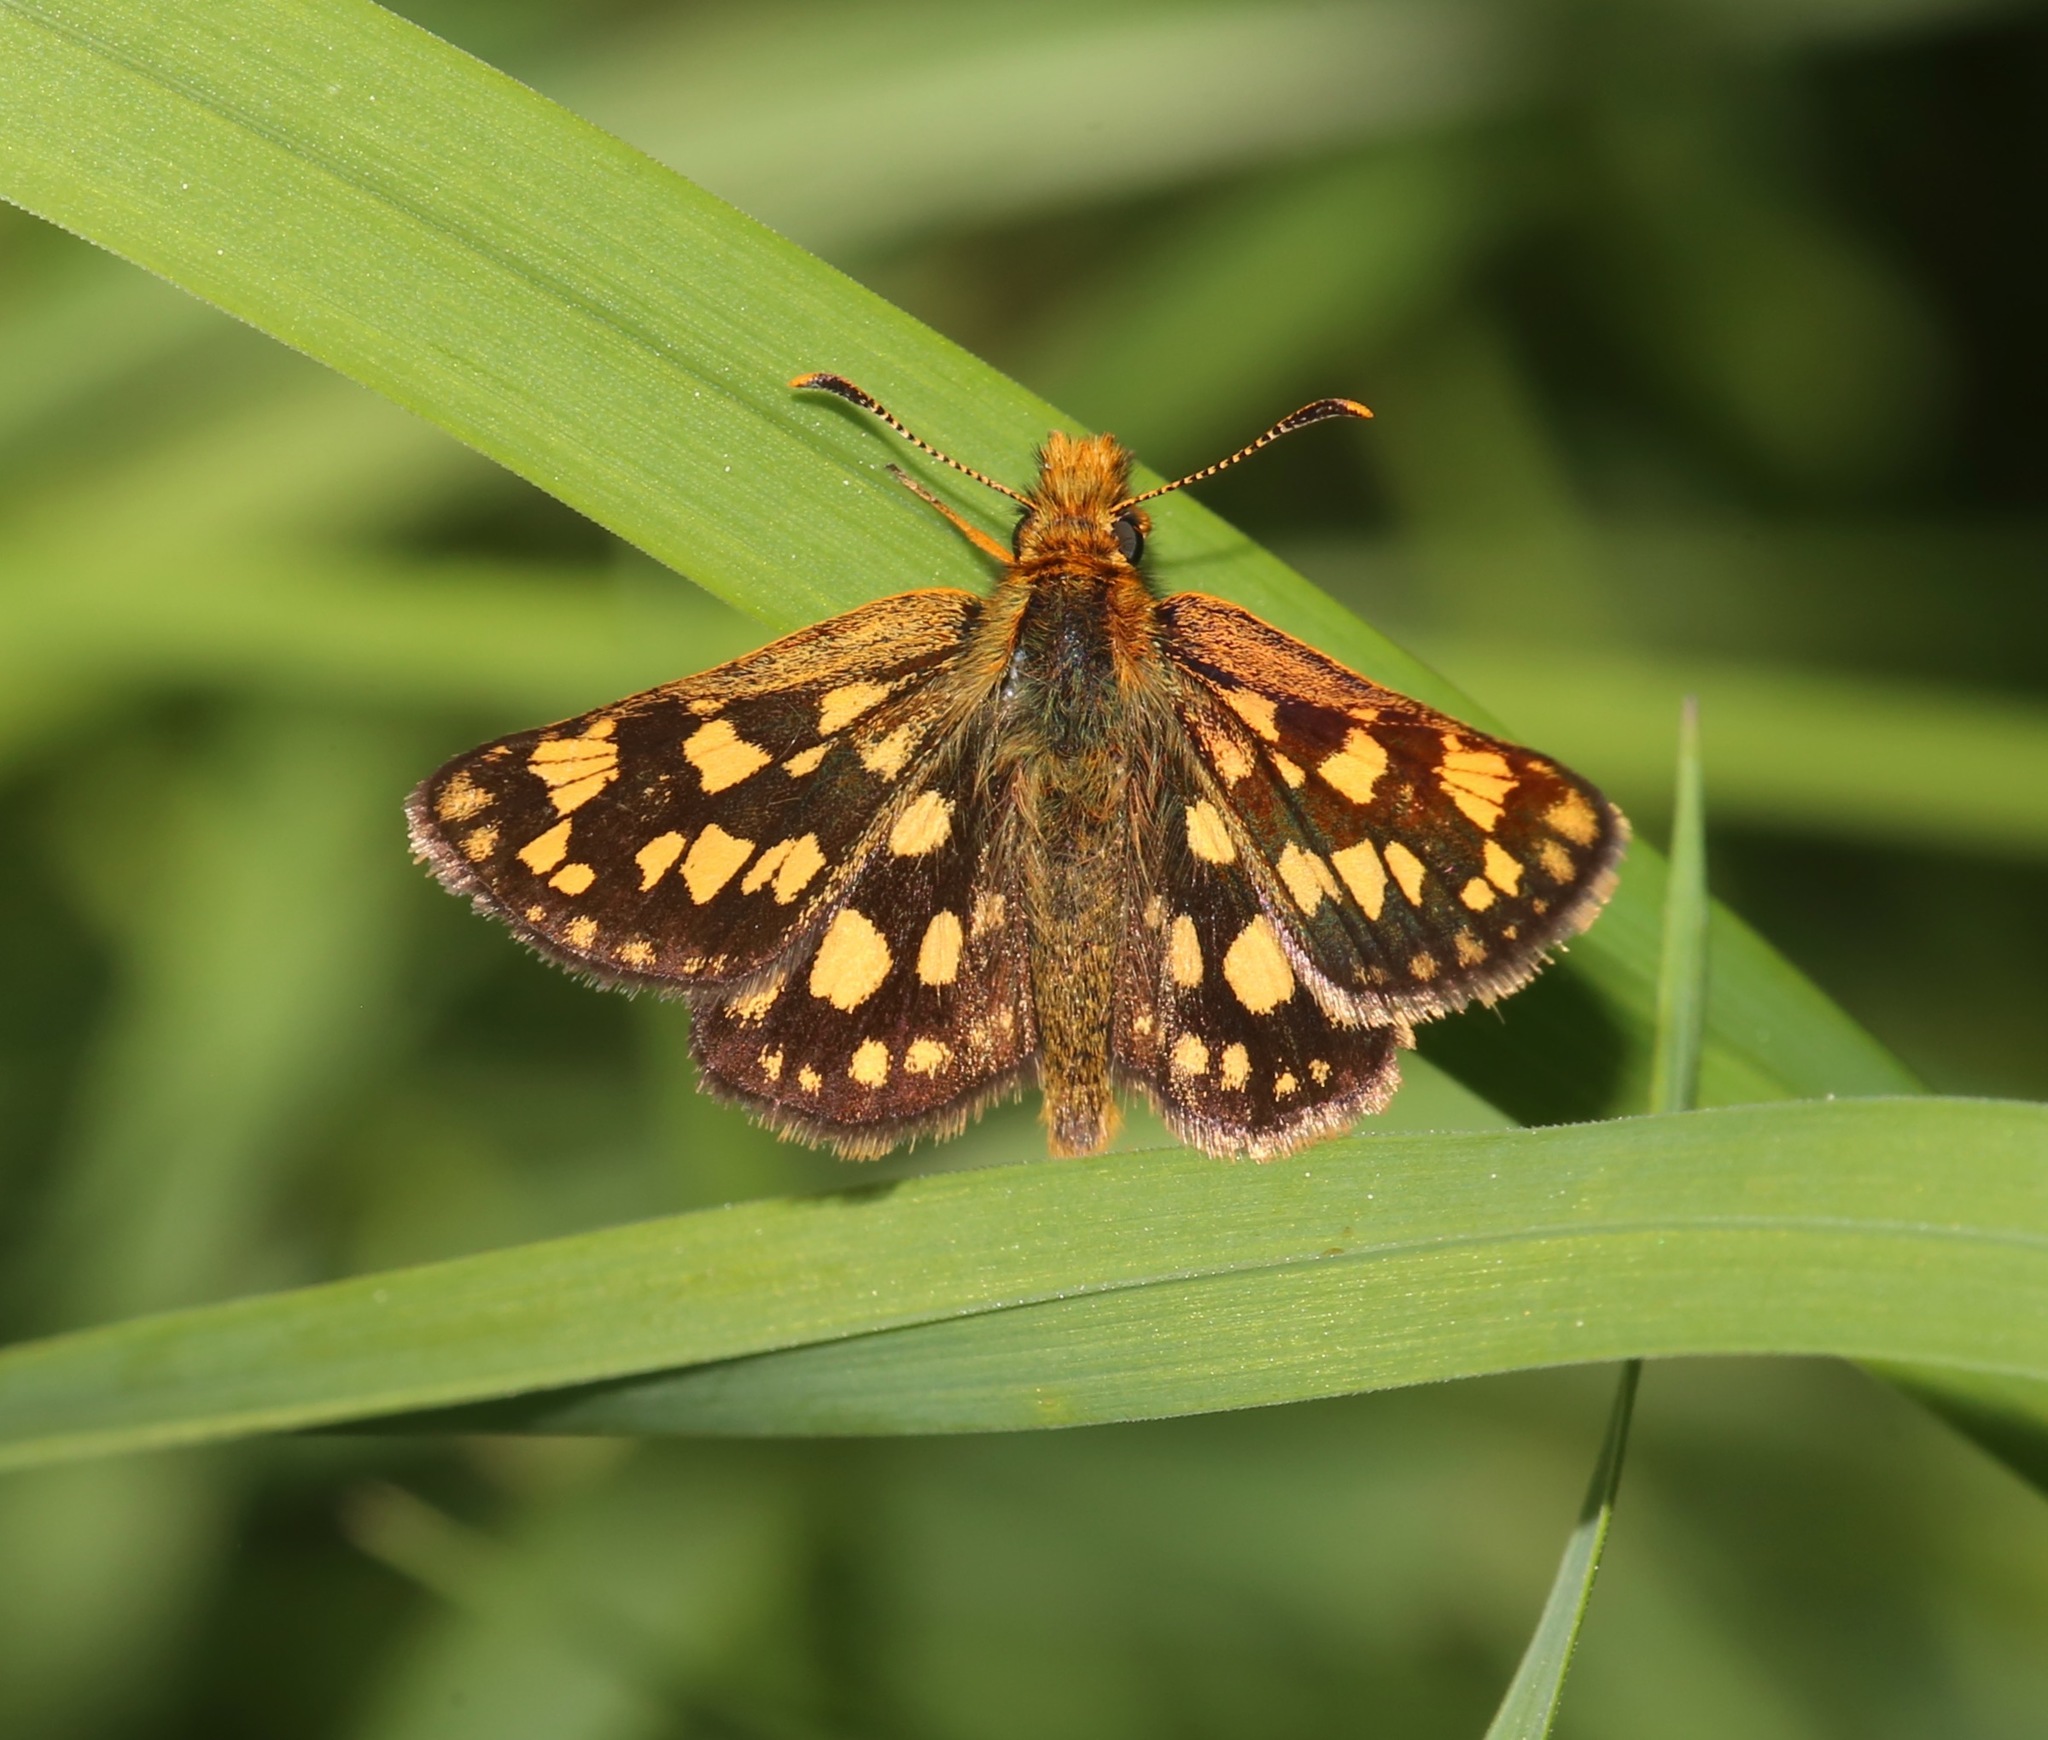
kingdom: Animalia
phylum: Arthropoda
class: Insecta
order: Lepidoptera
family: Hesperiidae
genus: Carterocephalus
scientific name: Carterocephalus skada
